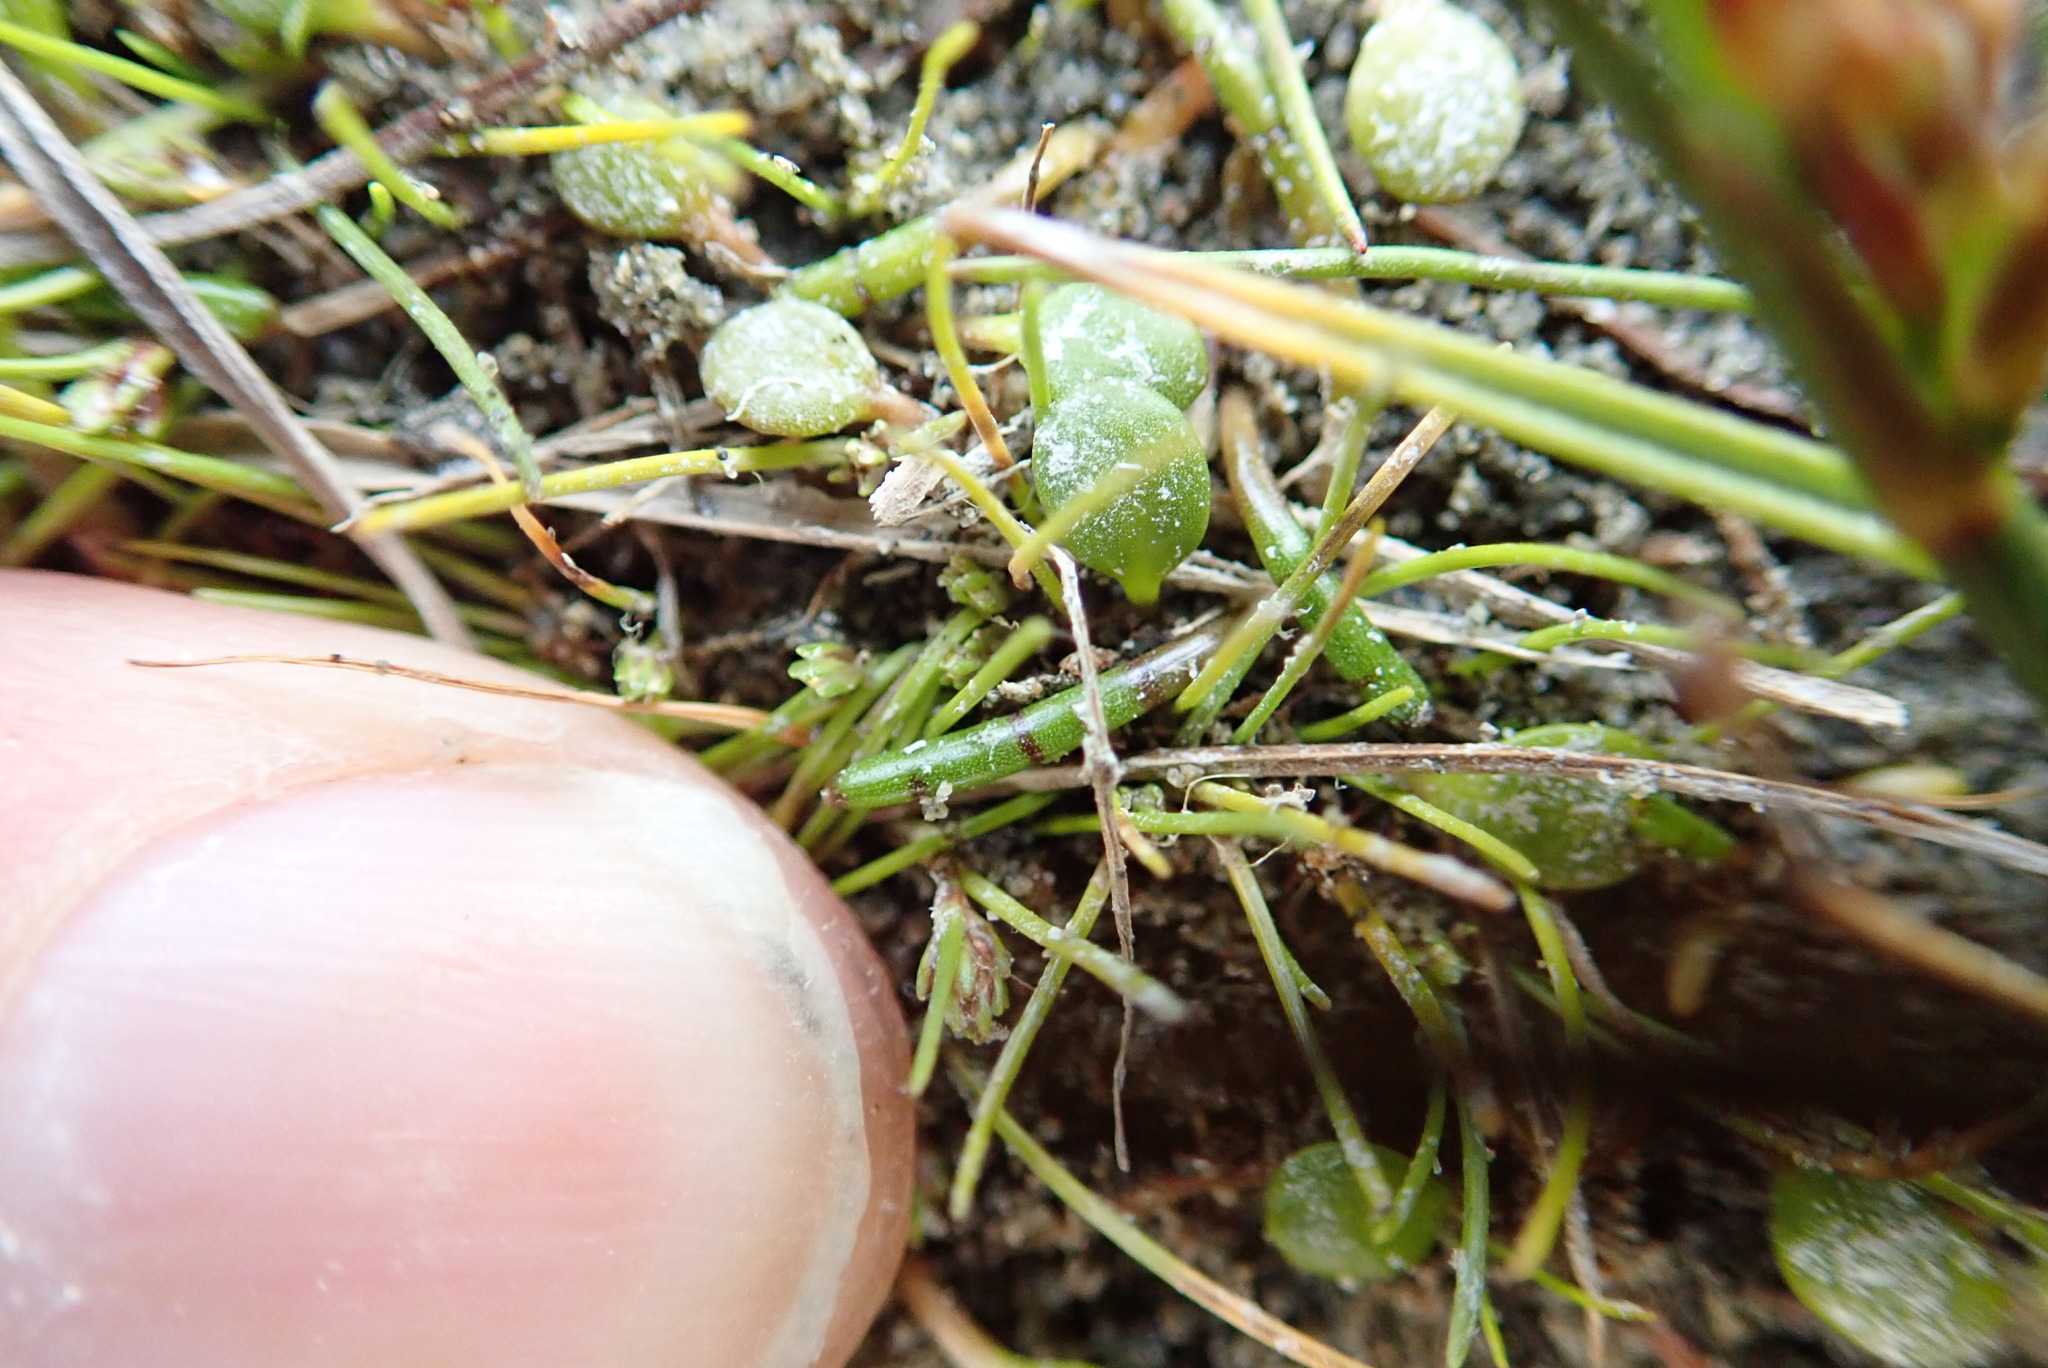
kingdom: Plantae
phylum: Tracheophyta
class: Liliopsida
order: Poales
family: Cyperaceae
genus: Isolepis
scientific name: Isolepis basilaris
